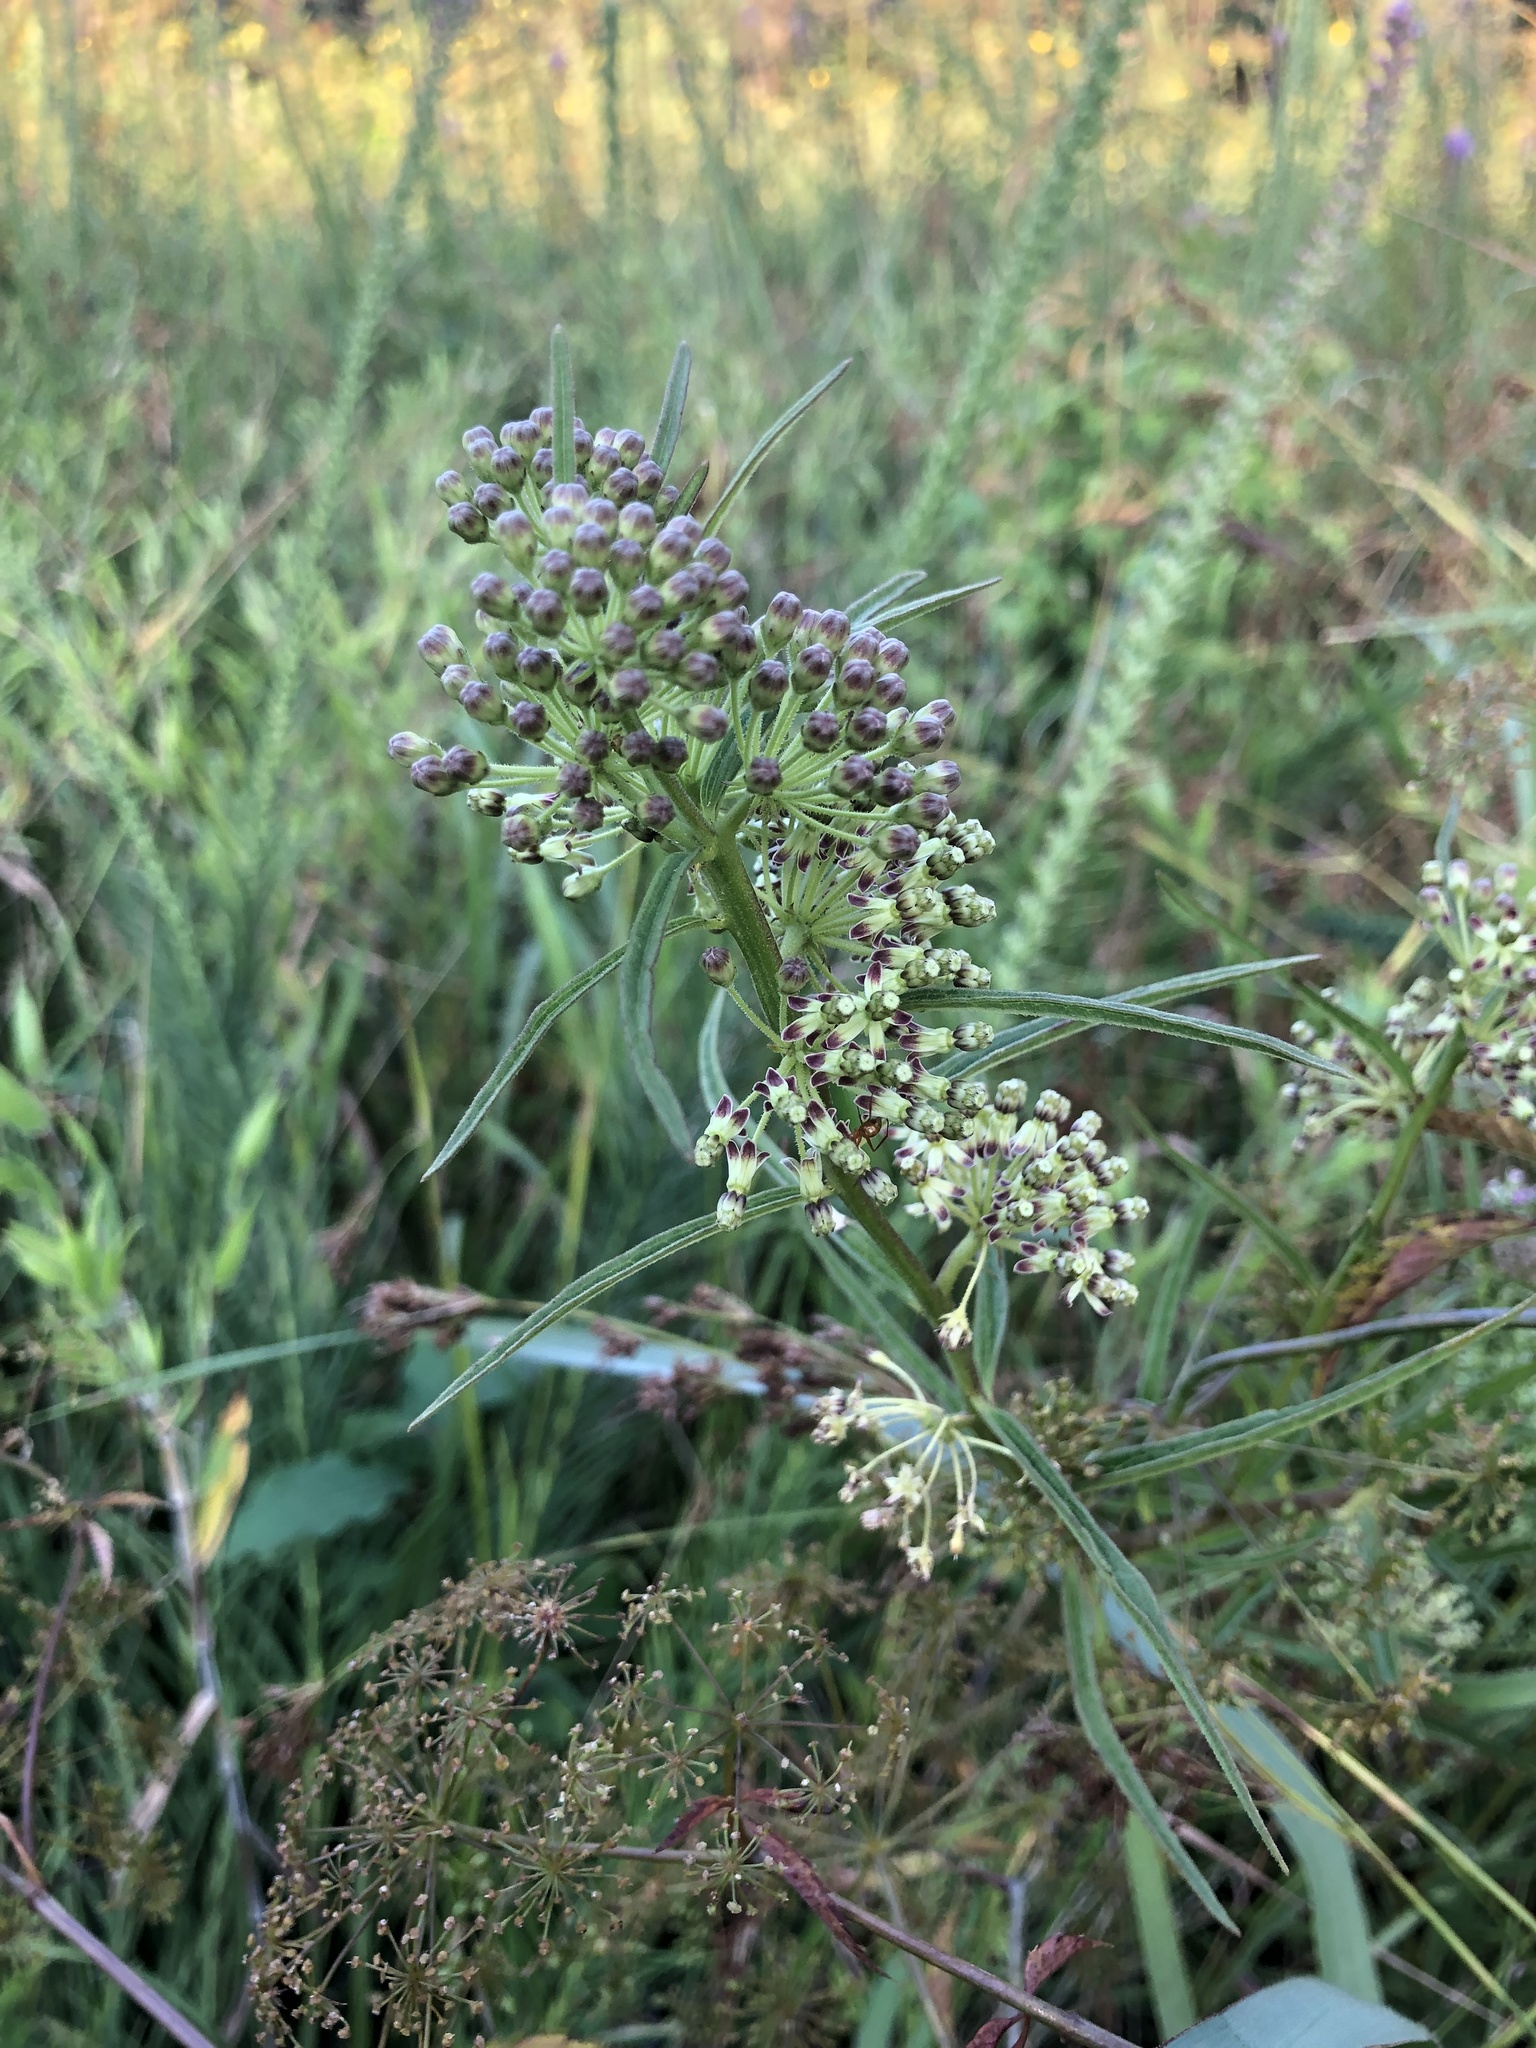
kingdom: Plantae
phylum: Tracheophyta
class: Magnoliopsida
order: Gentianales
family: Apocynaceae
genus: Asclepias
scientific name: Asclepias hirtella
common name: Prairie milkweed
